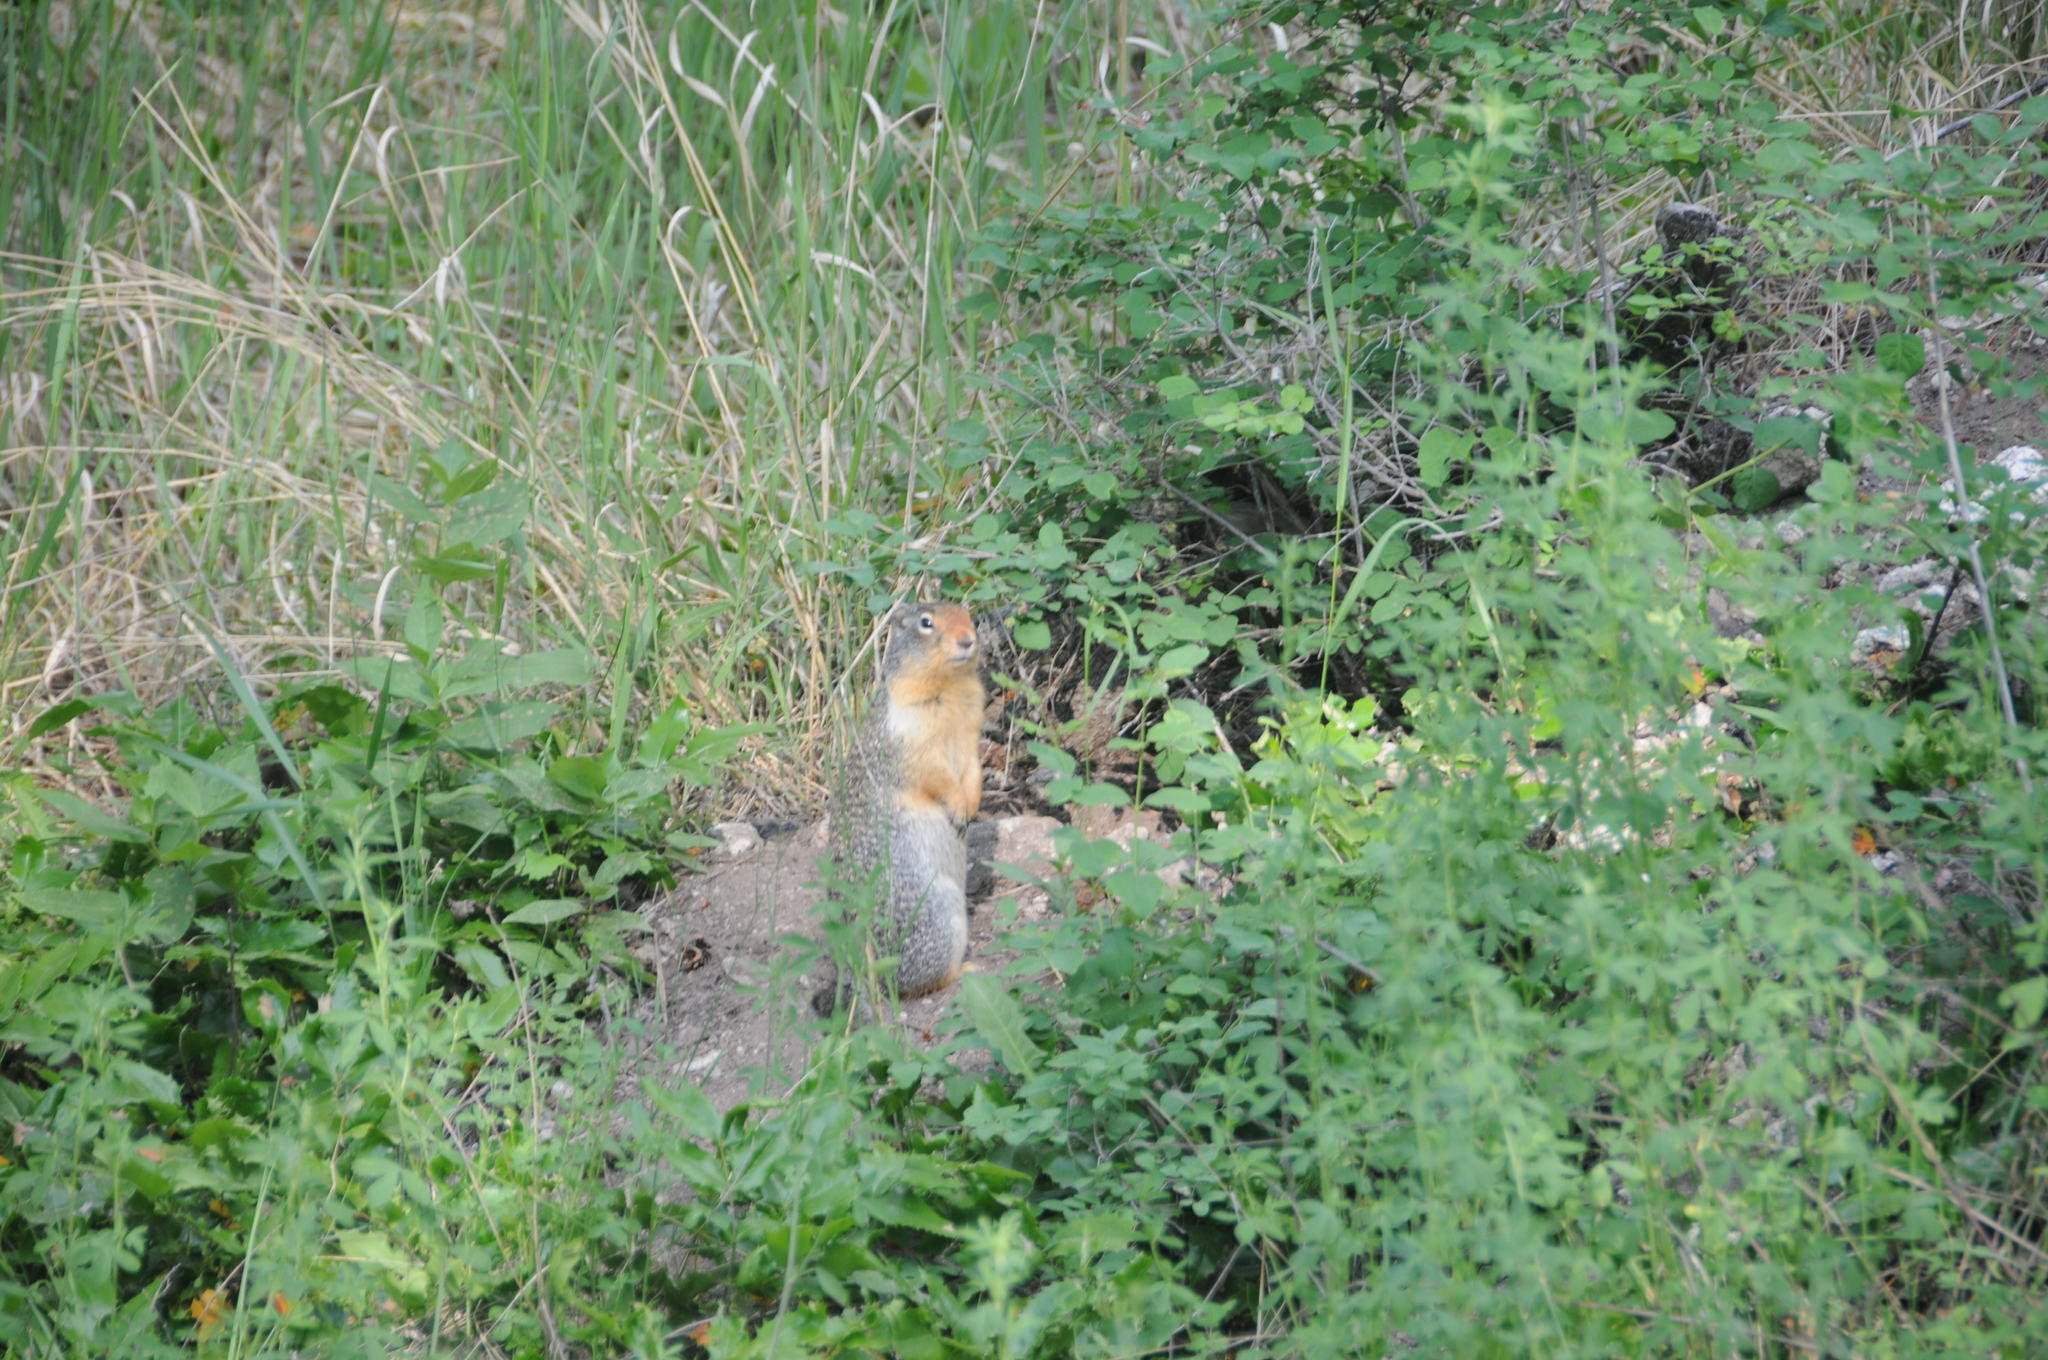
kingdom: Animalia
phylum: Chordata
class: Mammalia
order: Rodentia
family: Sciuridae
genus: Urocitellus
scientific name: Urocitellus columbianus
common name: Columbian ground squirrel
